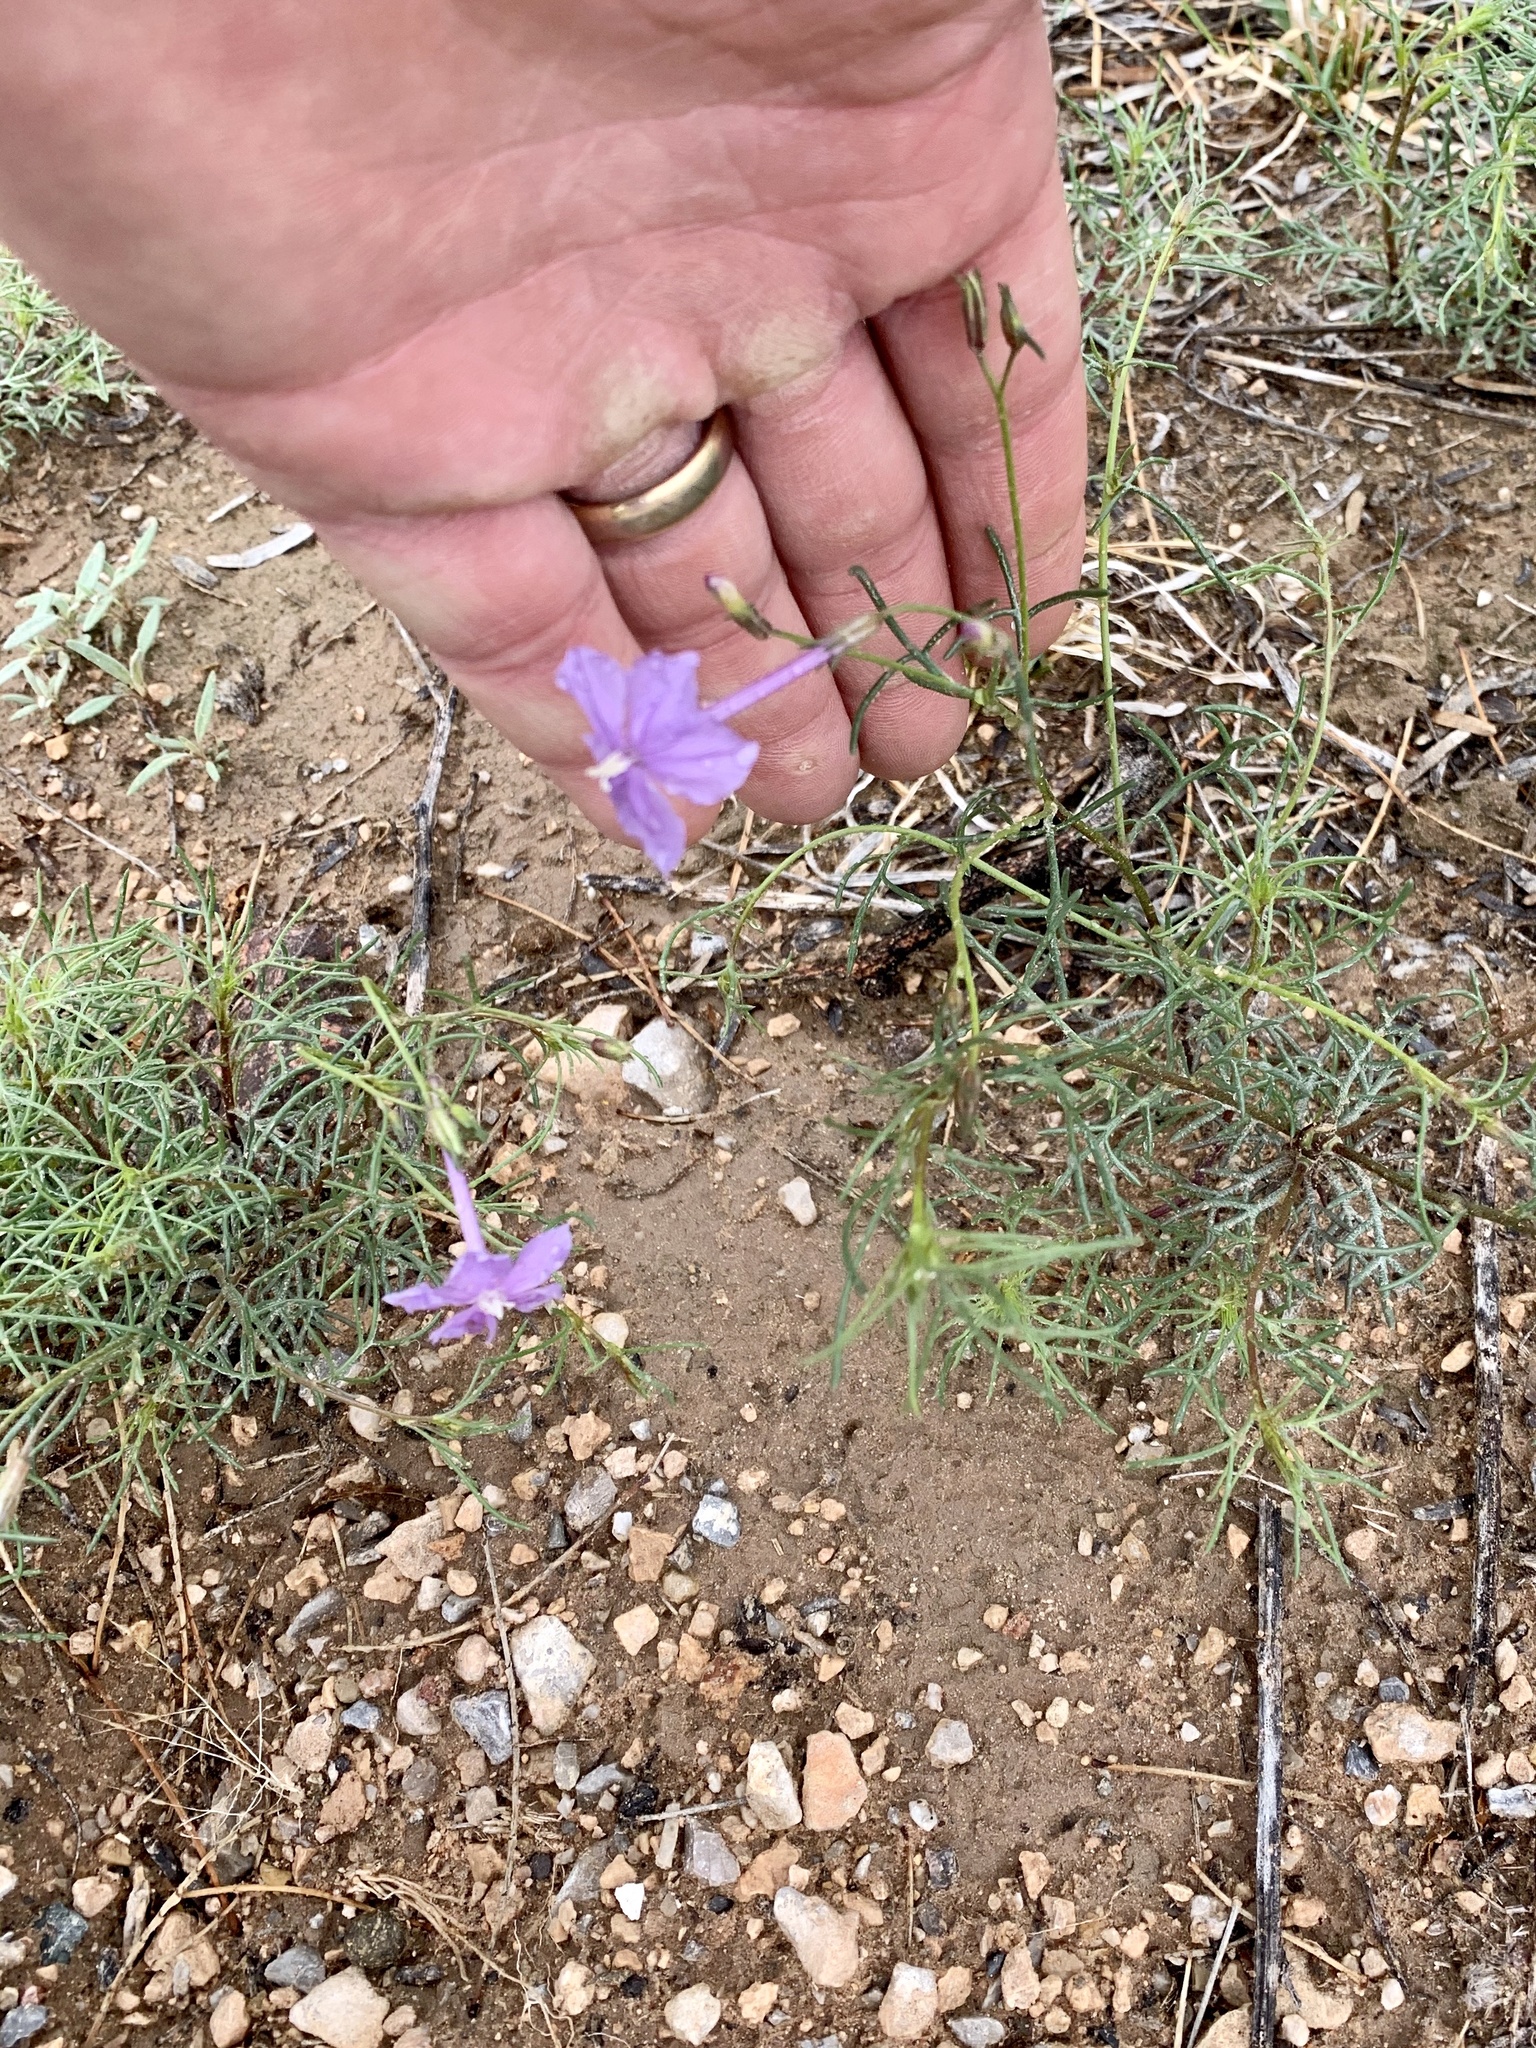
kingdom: Plantae
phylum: Tracheophyta
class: Magnoliopsida
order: Ericales
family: Polemoniaceae
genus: Ipomopsis
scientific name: Ipomopsis longiflora
